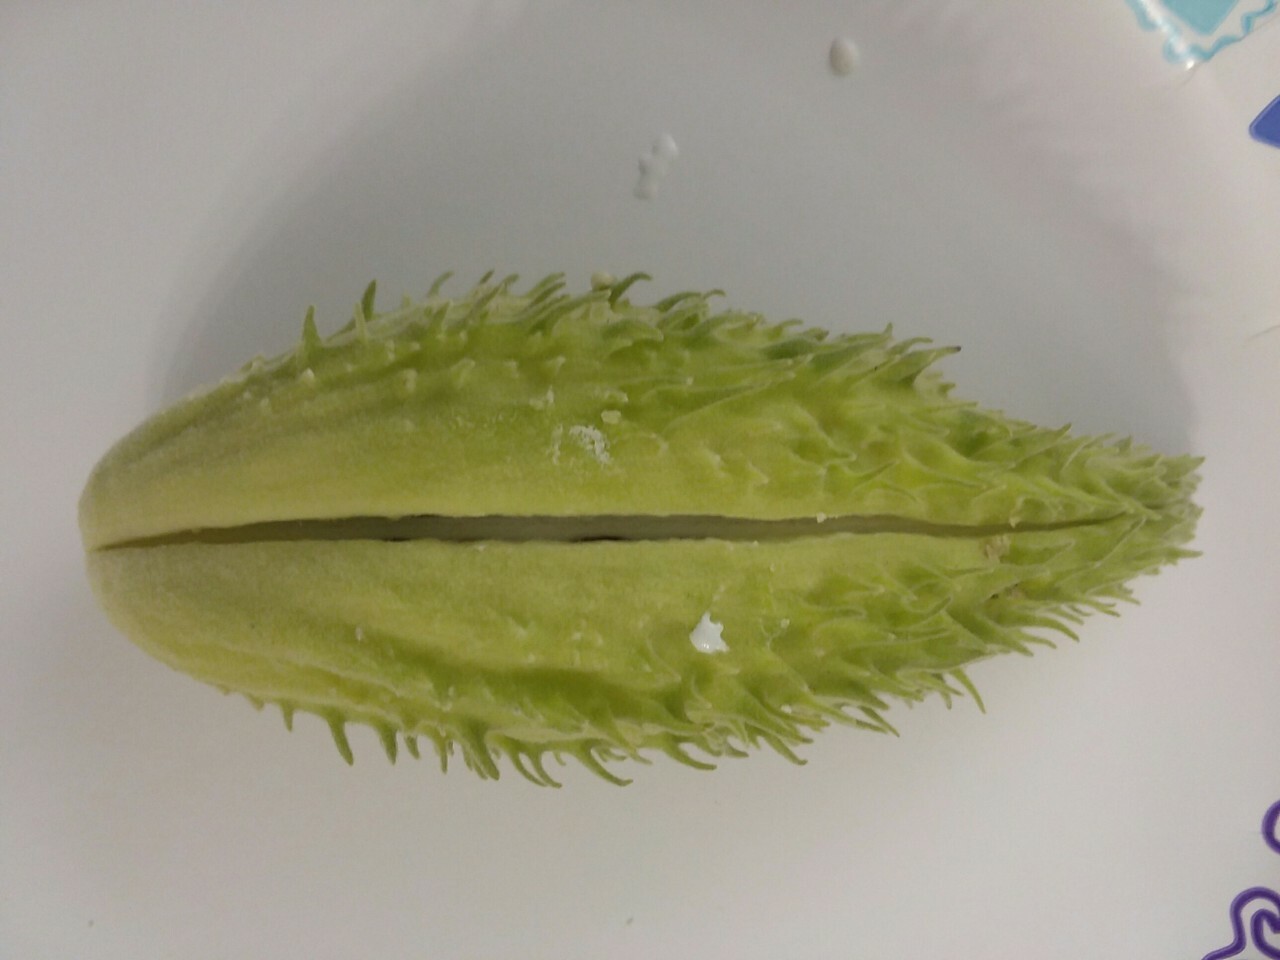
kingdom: Plantae
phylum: Tracheophyta
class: Magnoliopsida
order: Gentianales
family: Apocynaceae
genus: Asclepias
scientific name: Asclepias syriaca
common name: Common milkweed
